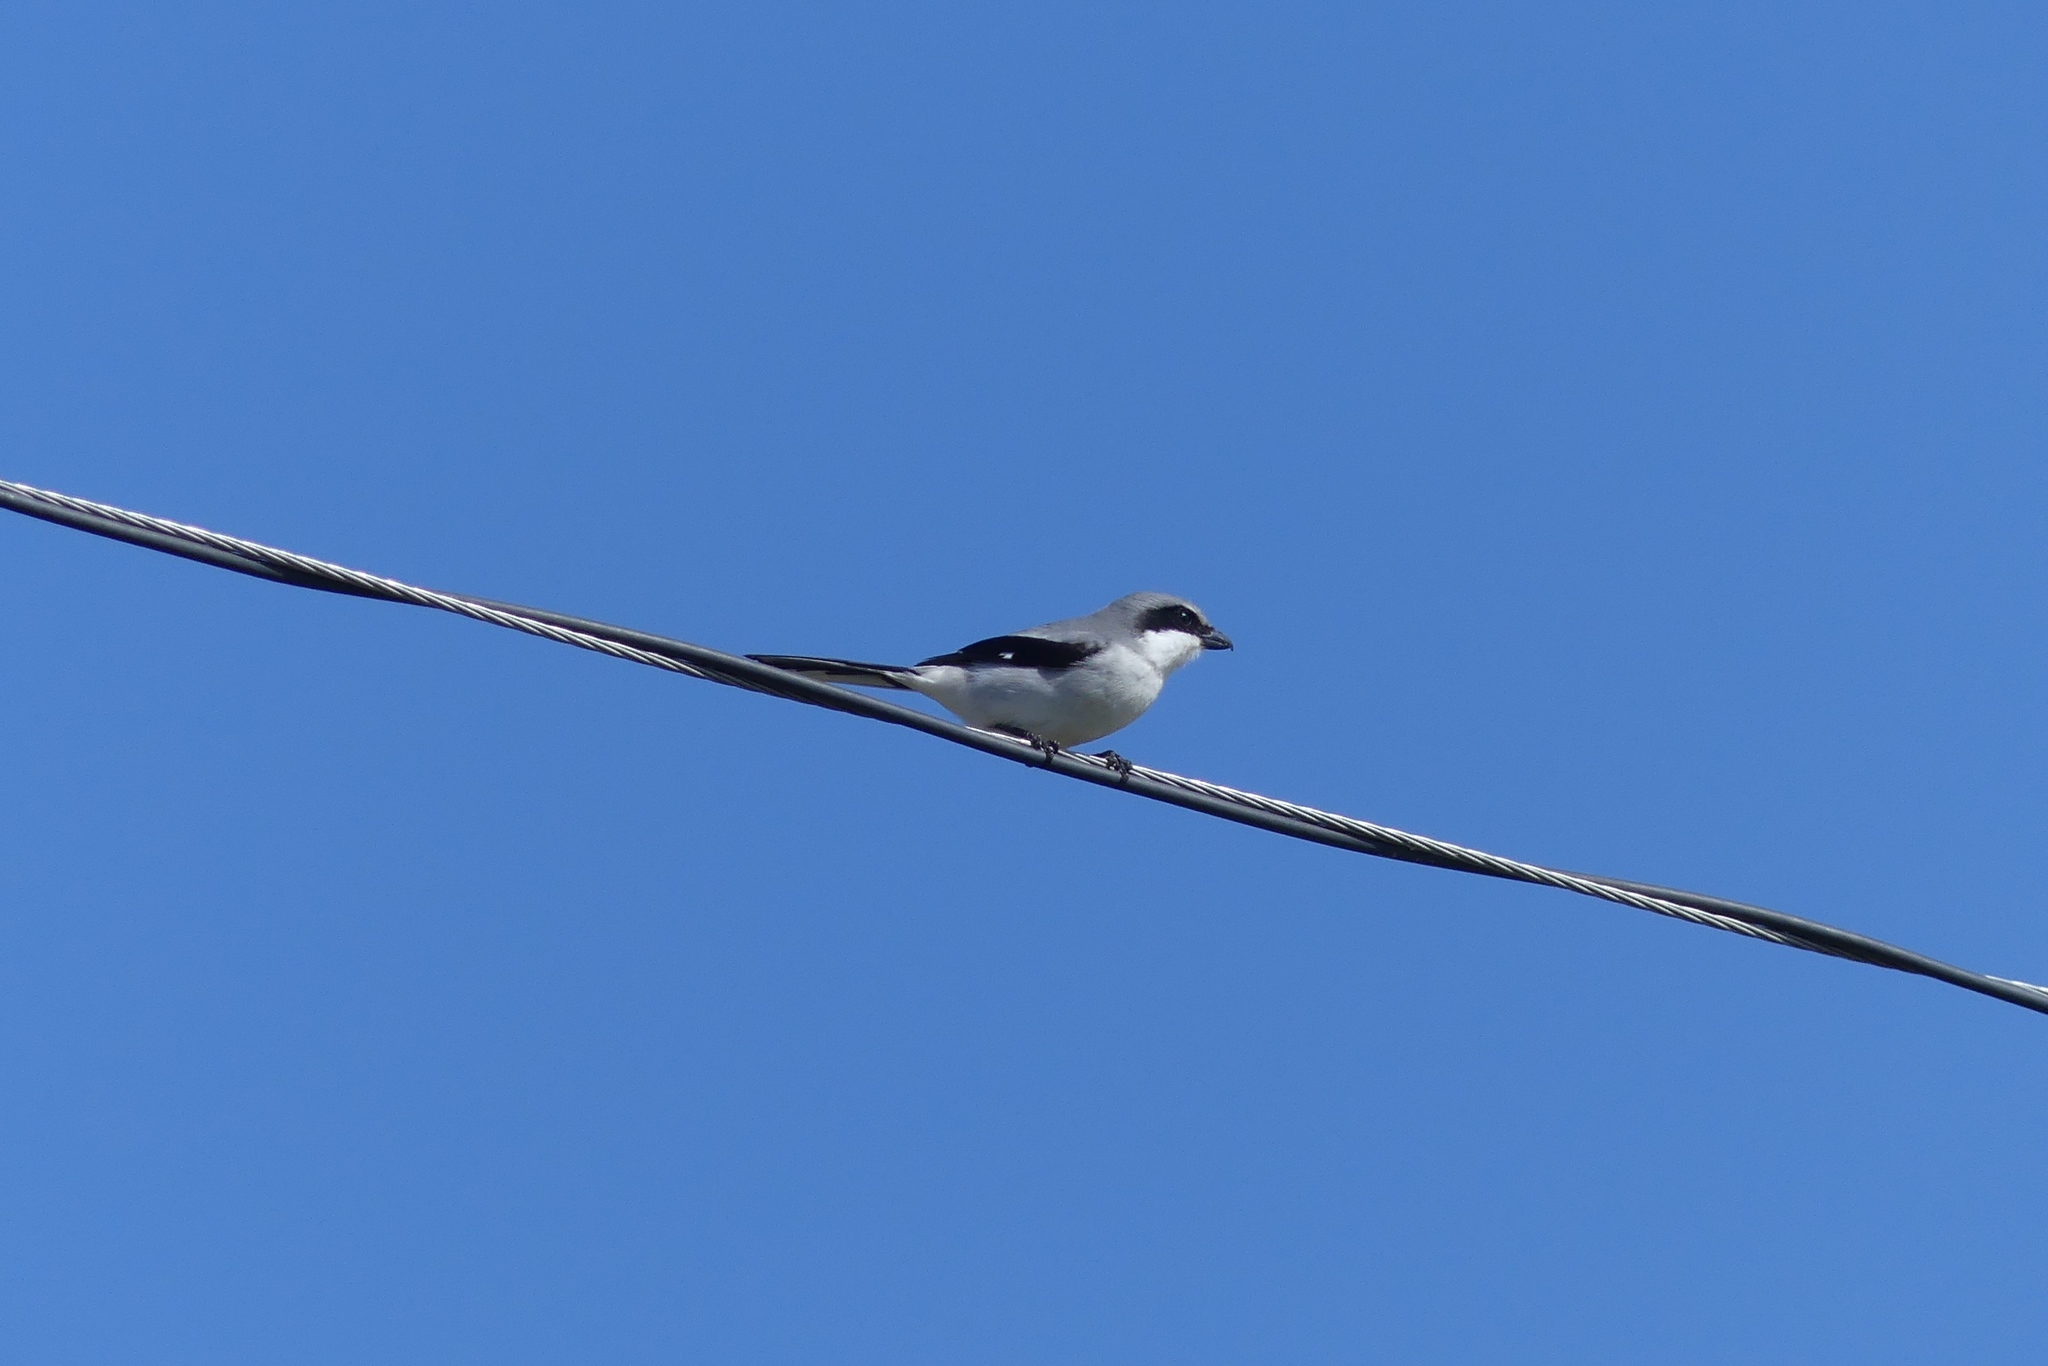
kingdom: Animalia
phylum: Chordata
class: Aves
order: Passeriformes
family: Laniidae
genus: Lanius
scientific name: Lanius ludovicianus
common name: Loggerhead shrike
